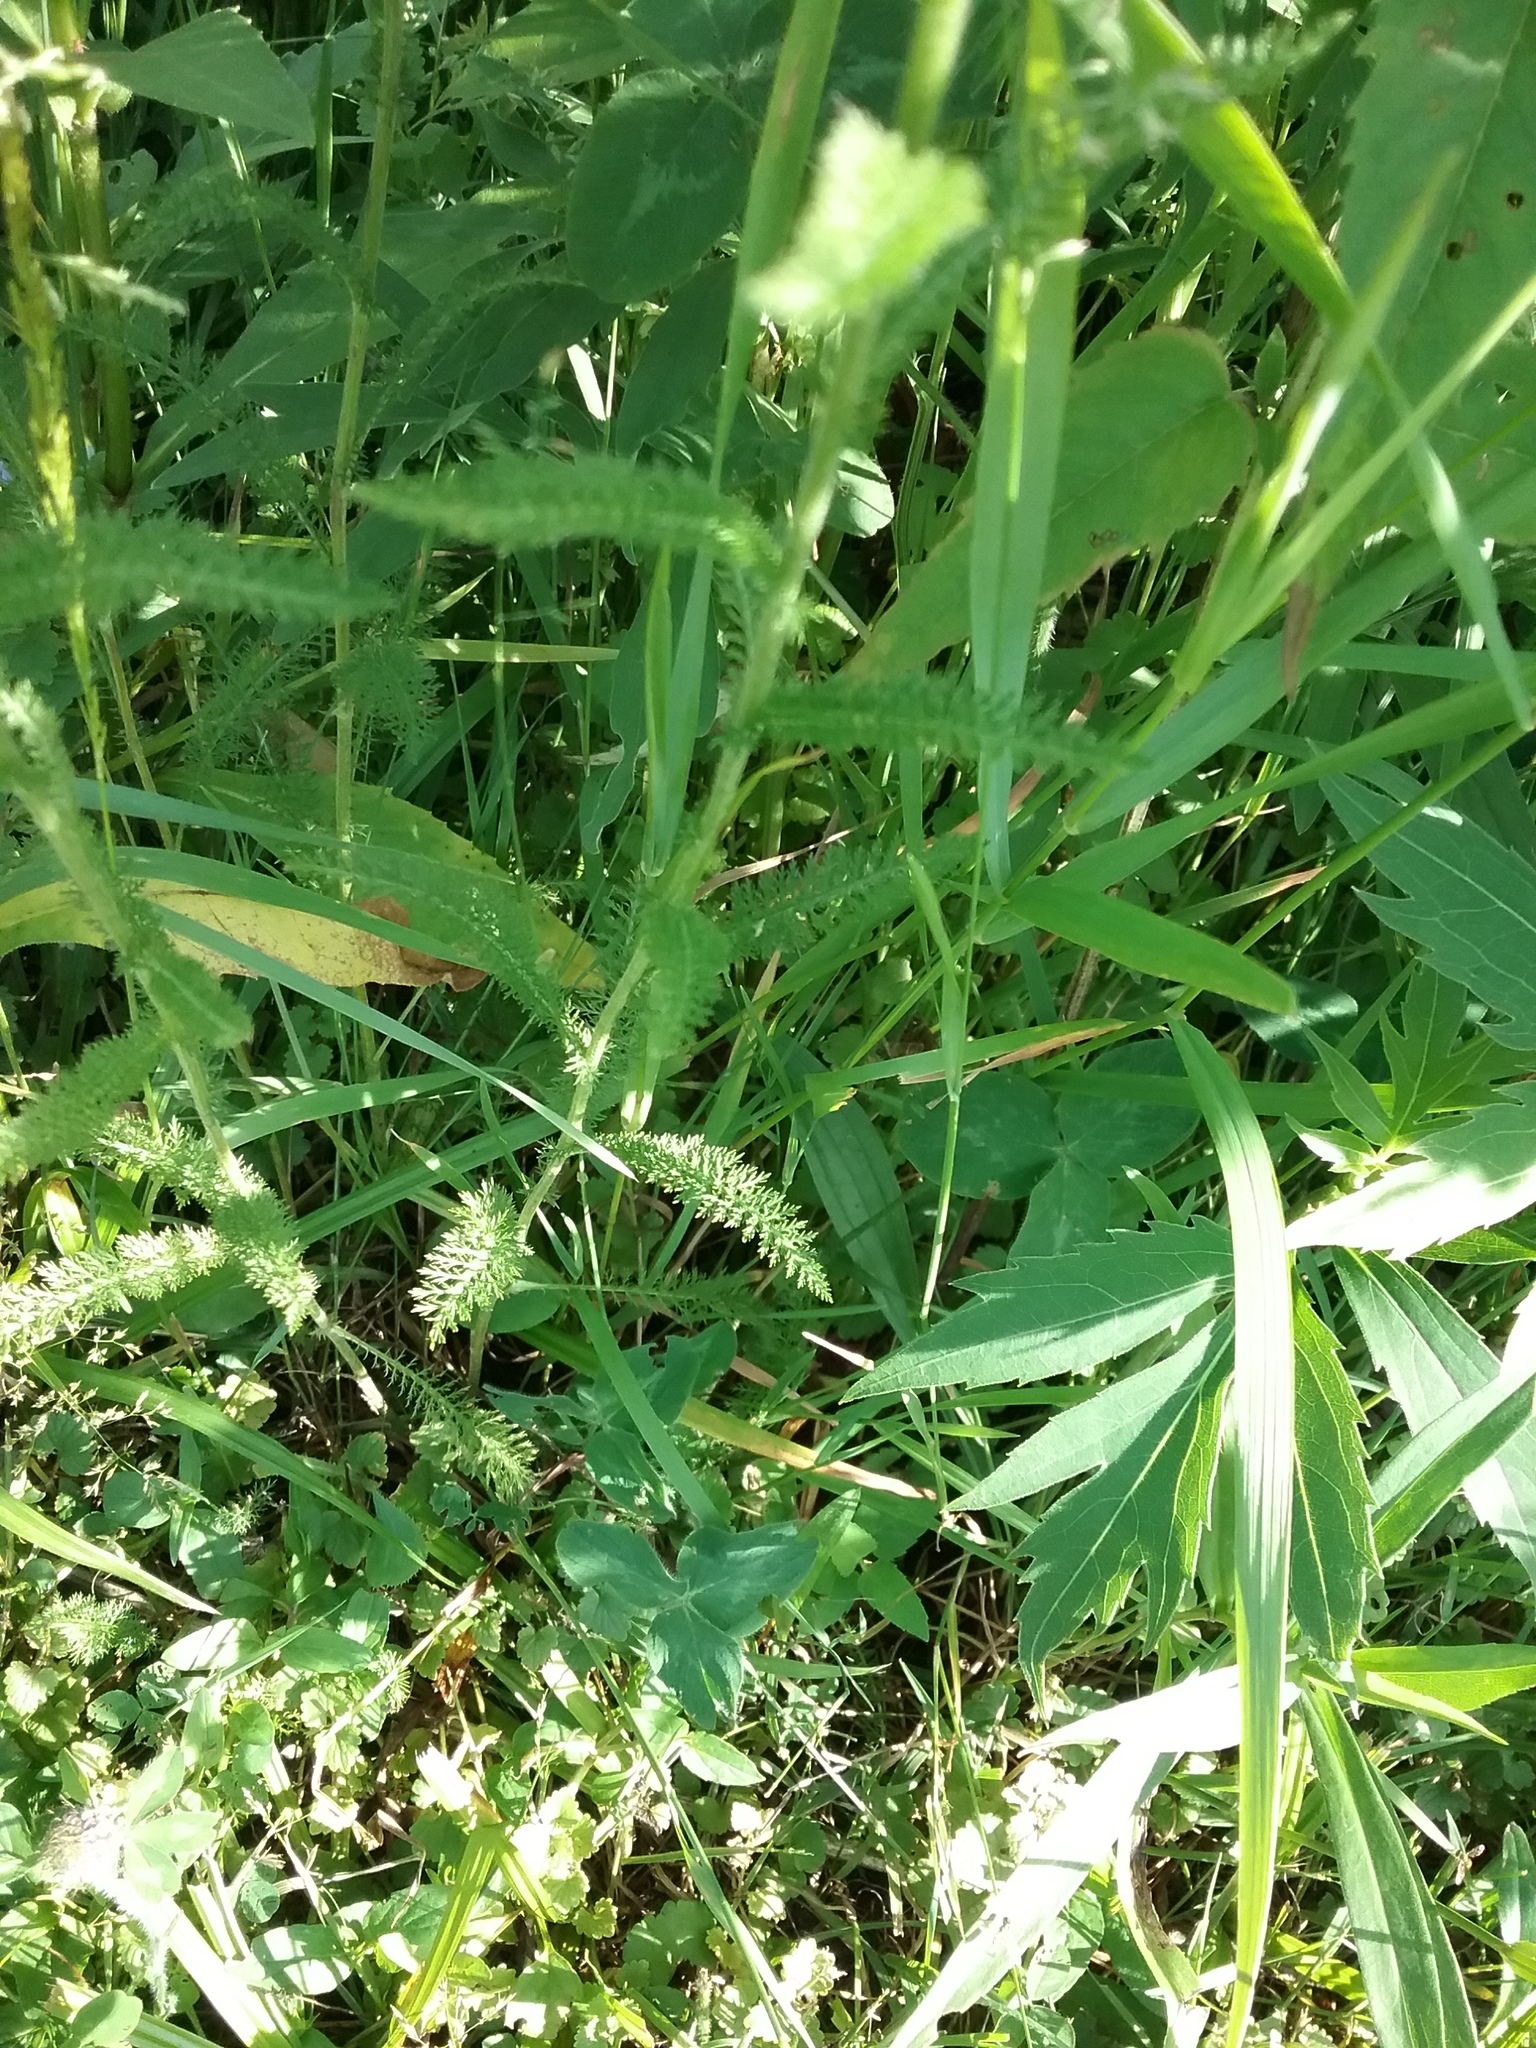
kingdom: Plantae
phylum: Tracheophyta
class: Magnoliopsida
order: Asterales
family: Asteraceae
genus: Achillea
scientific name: Achillea millefolium
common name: Yarrow
